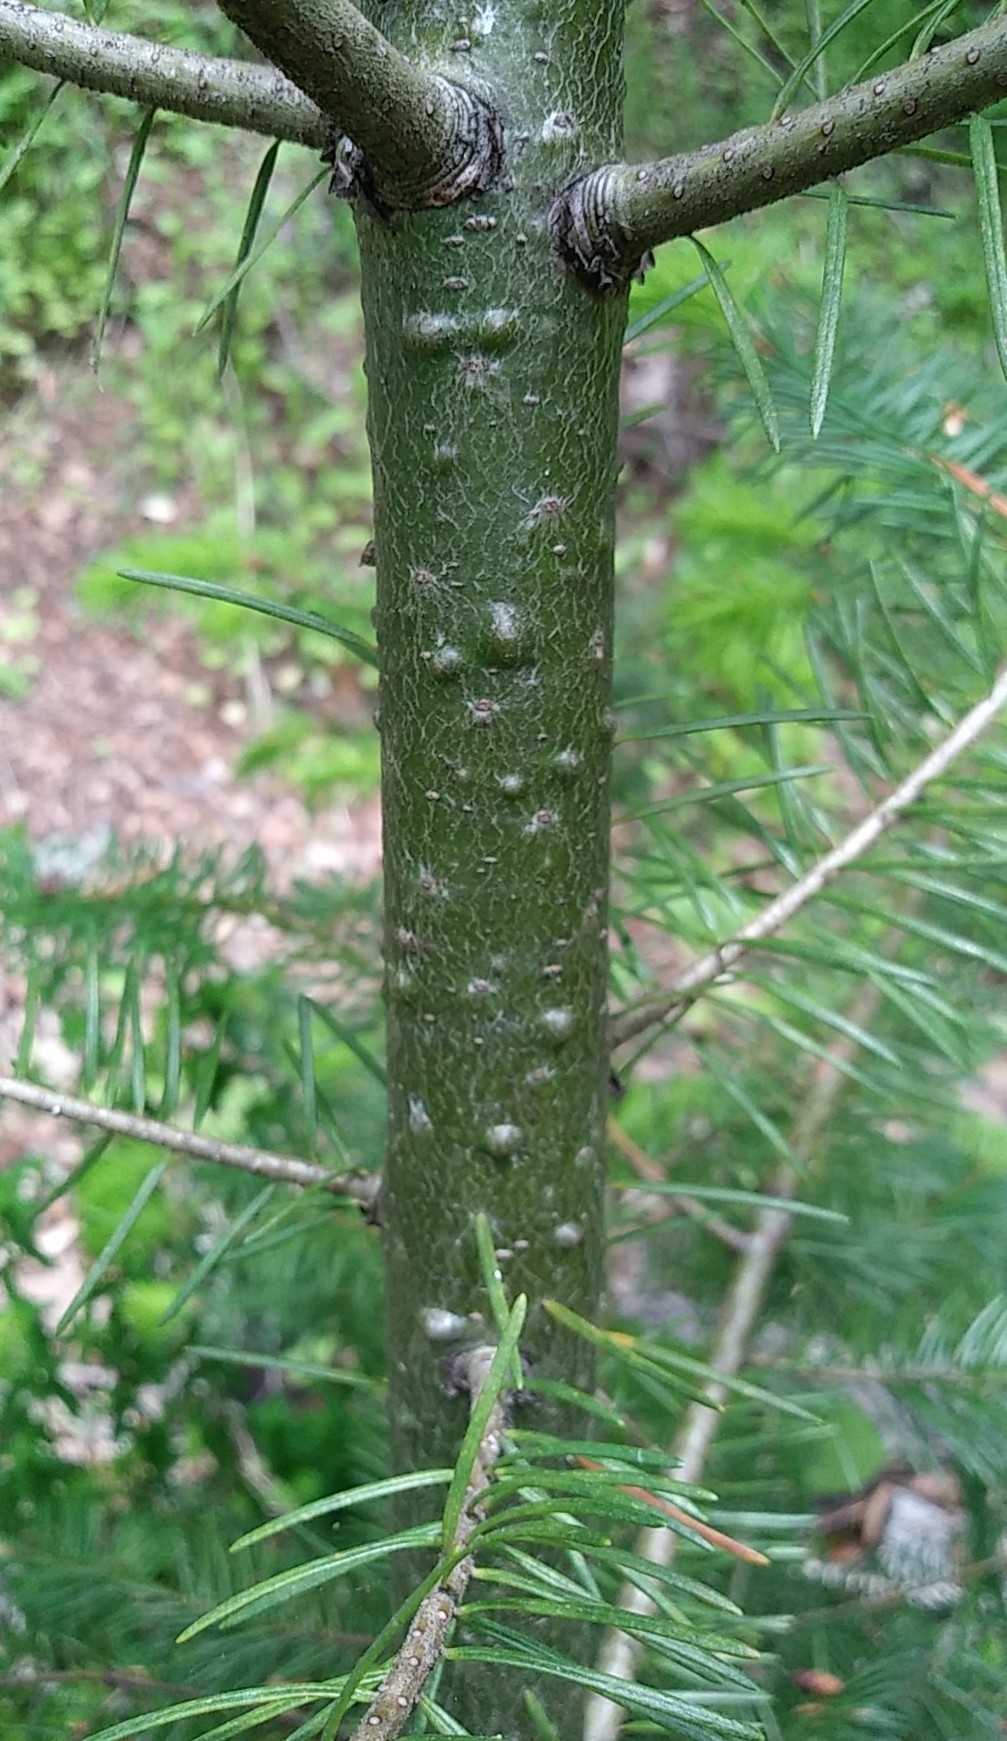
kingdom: Plantae
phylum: Tracheophyta
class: Pinopsida
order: Pinales
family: Pinaceae
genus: Pseudotsuga
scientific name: Pseudotsuga menziesii
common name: Douglas fir
